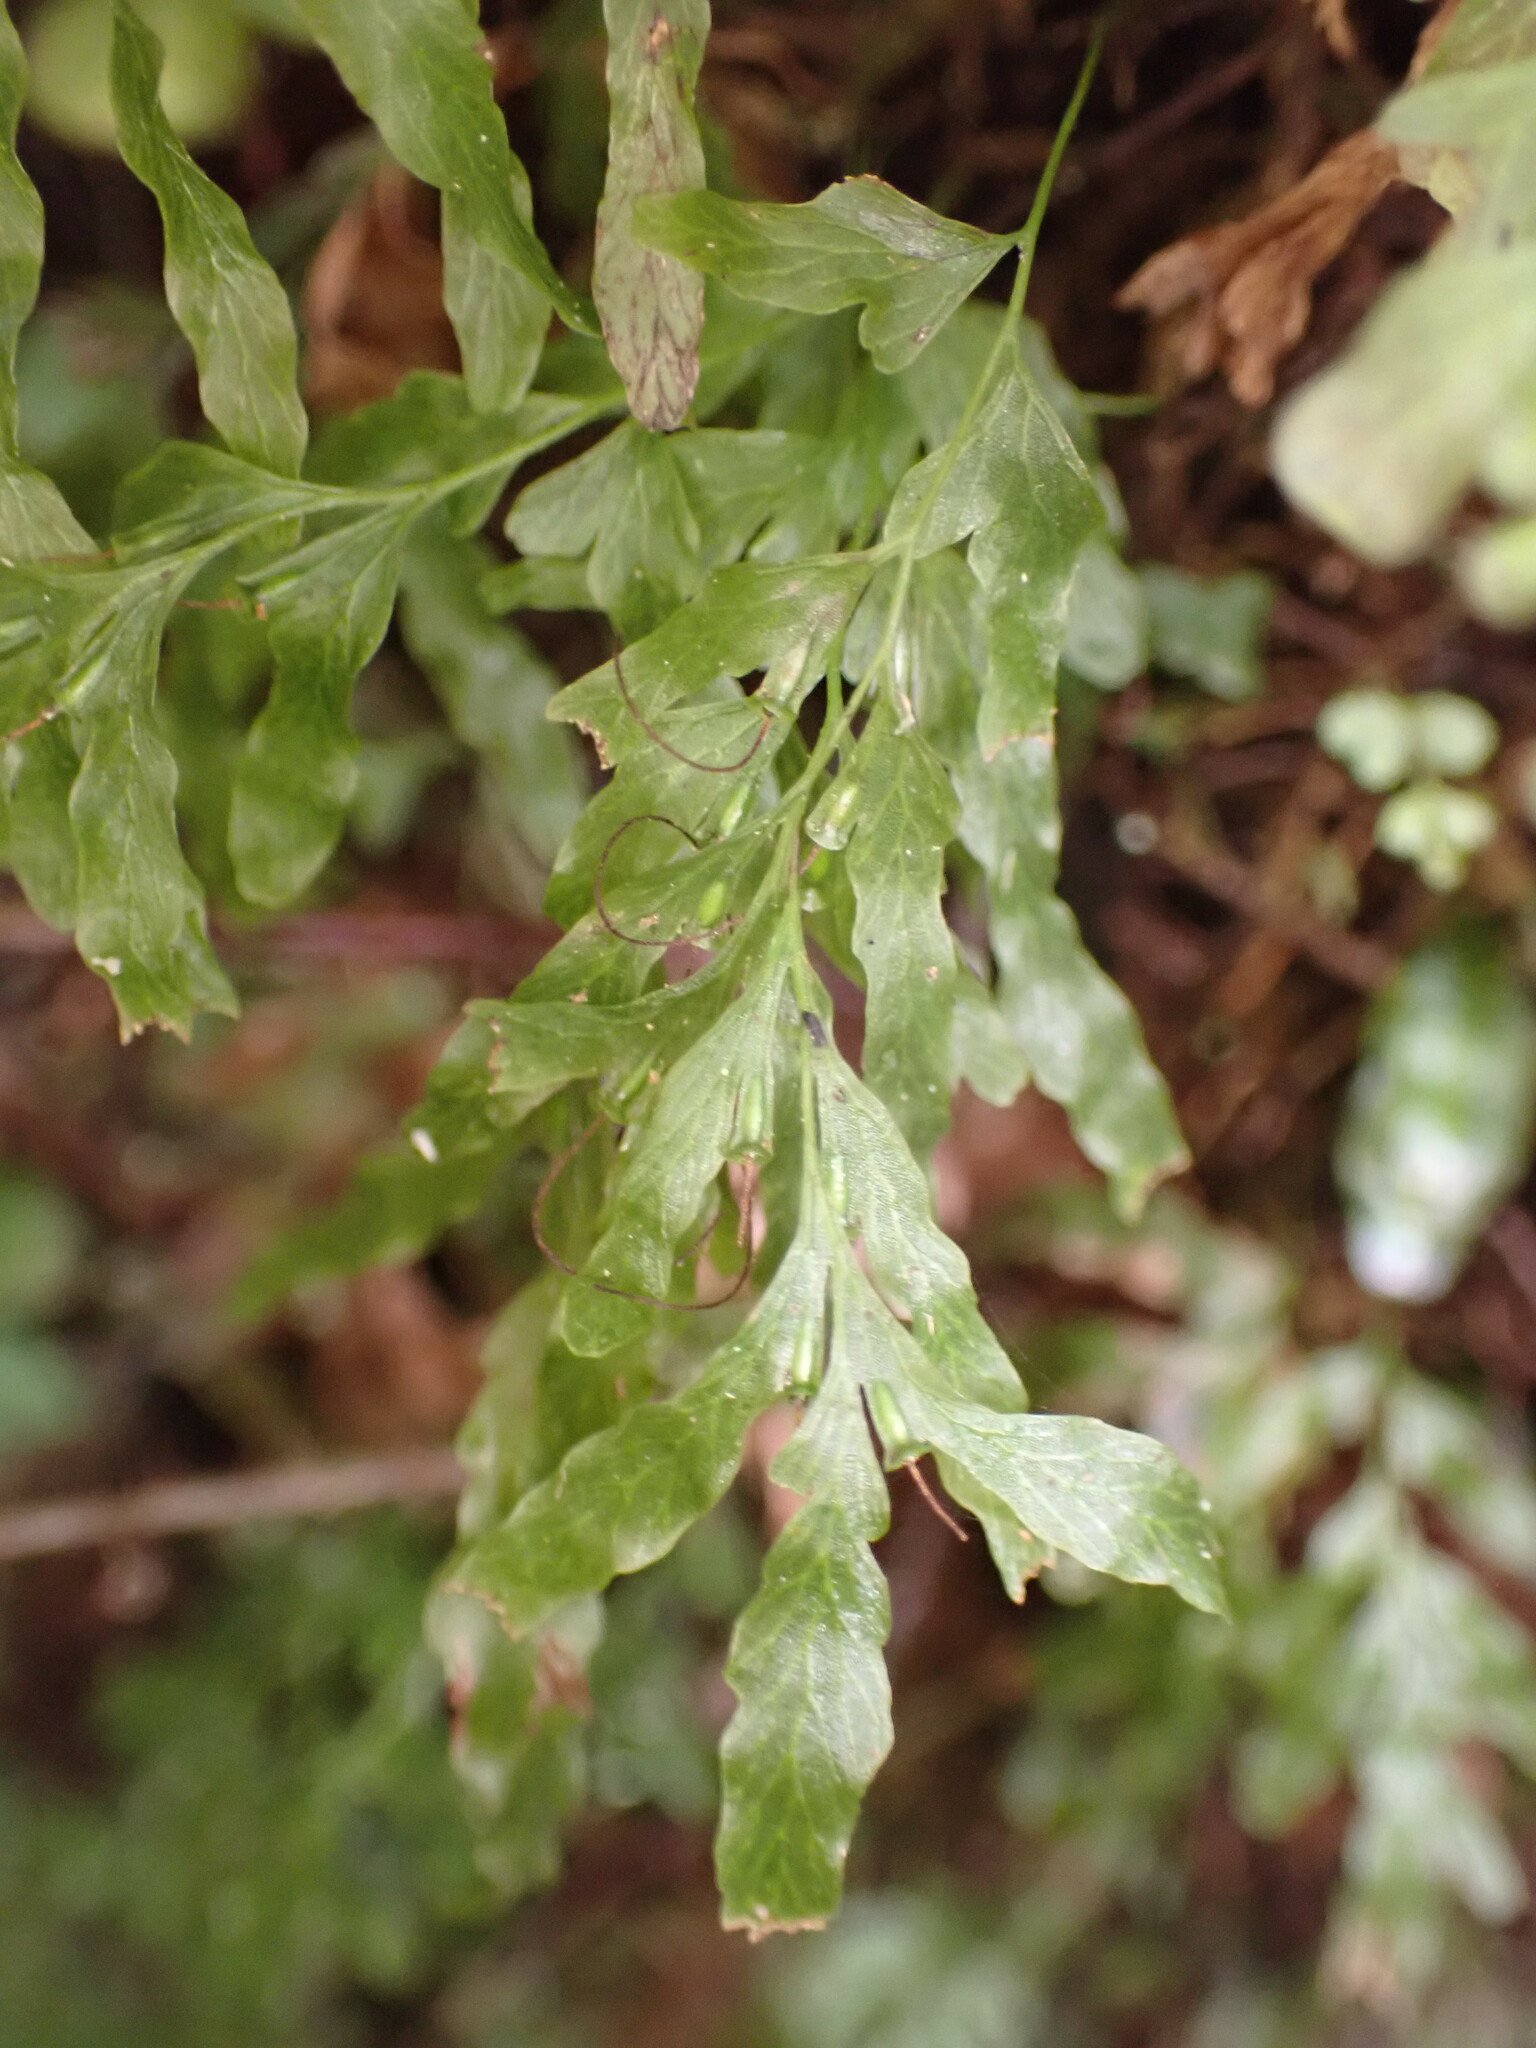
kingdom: Plantae
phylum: Tracheophyta
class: Polypodiopsida
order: Hymenophyllales
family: Hymenophyllaceae
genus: Polyphlebium
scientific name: Polyphlebium venosum
